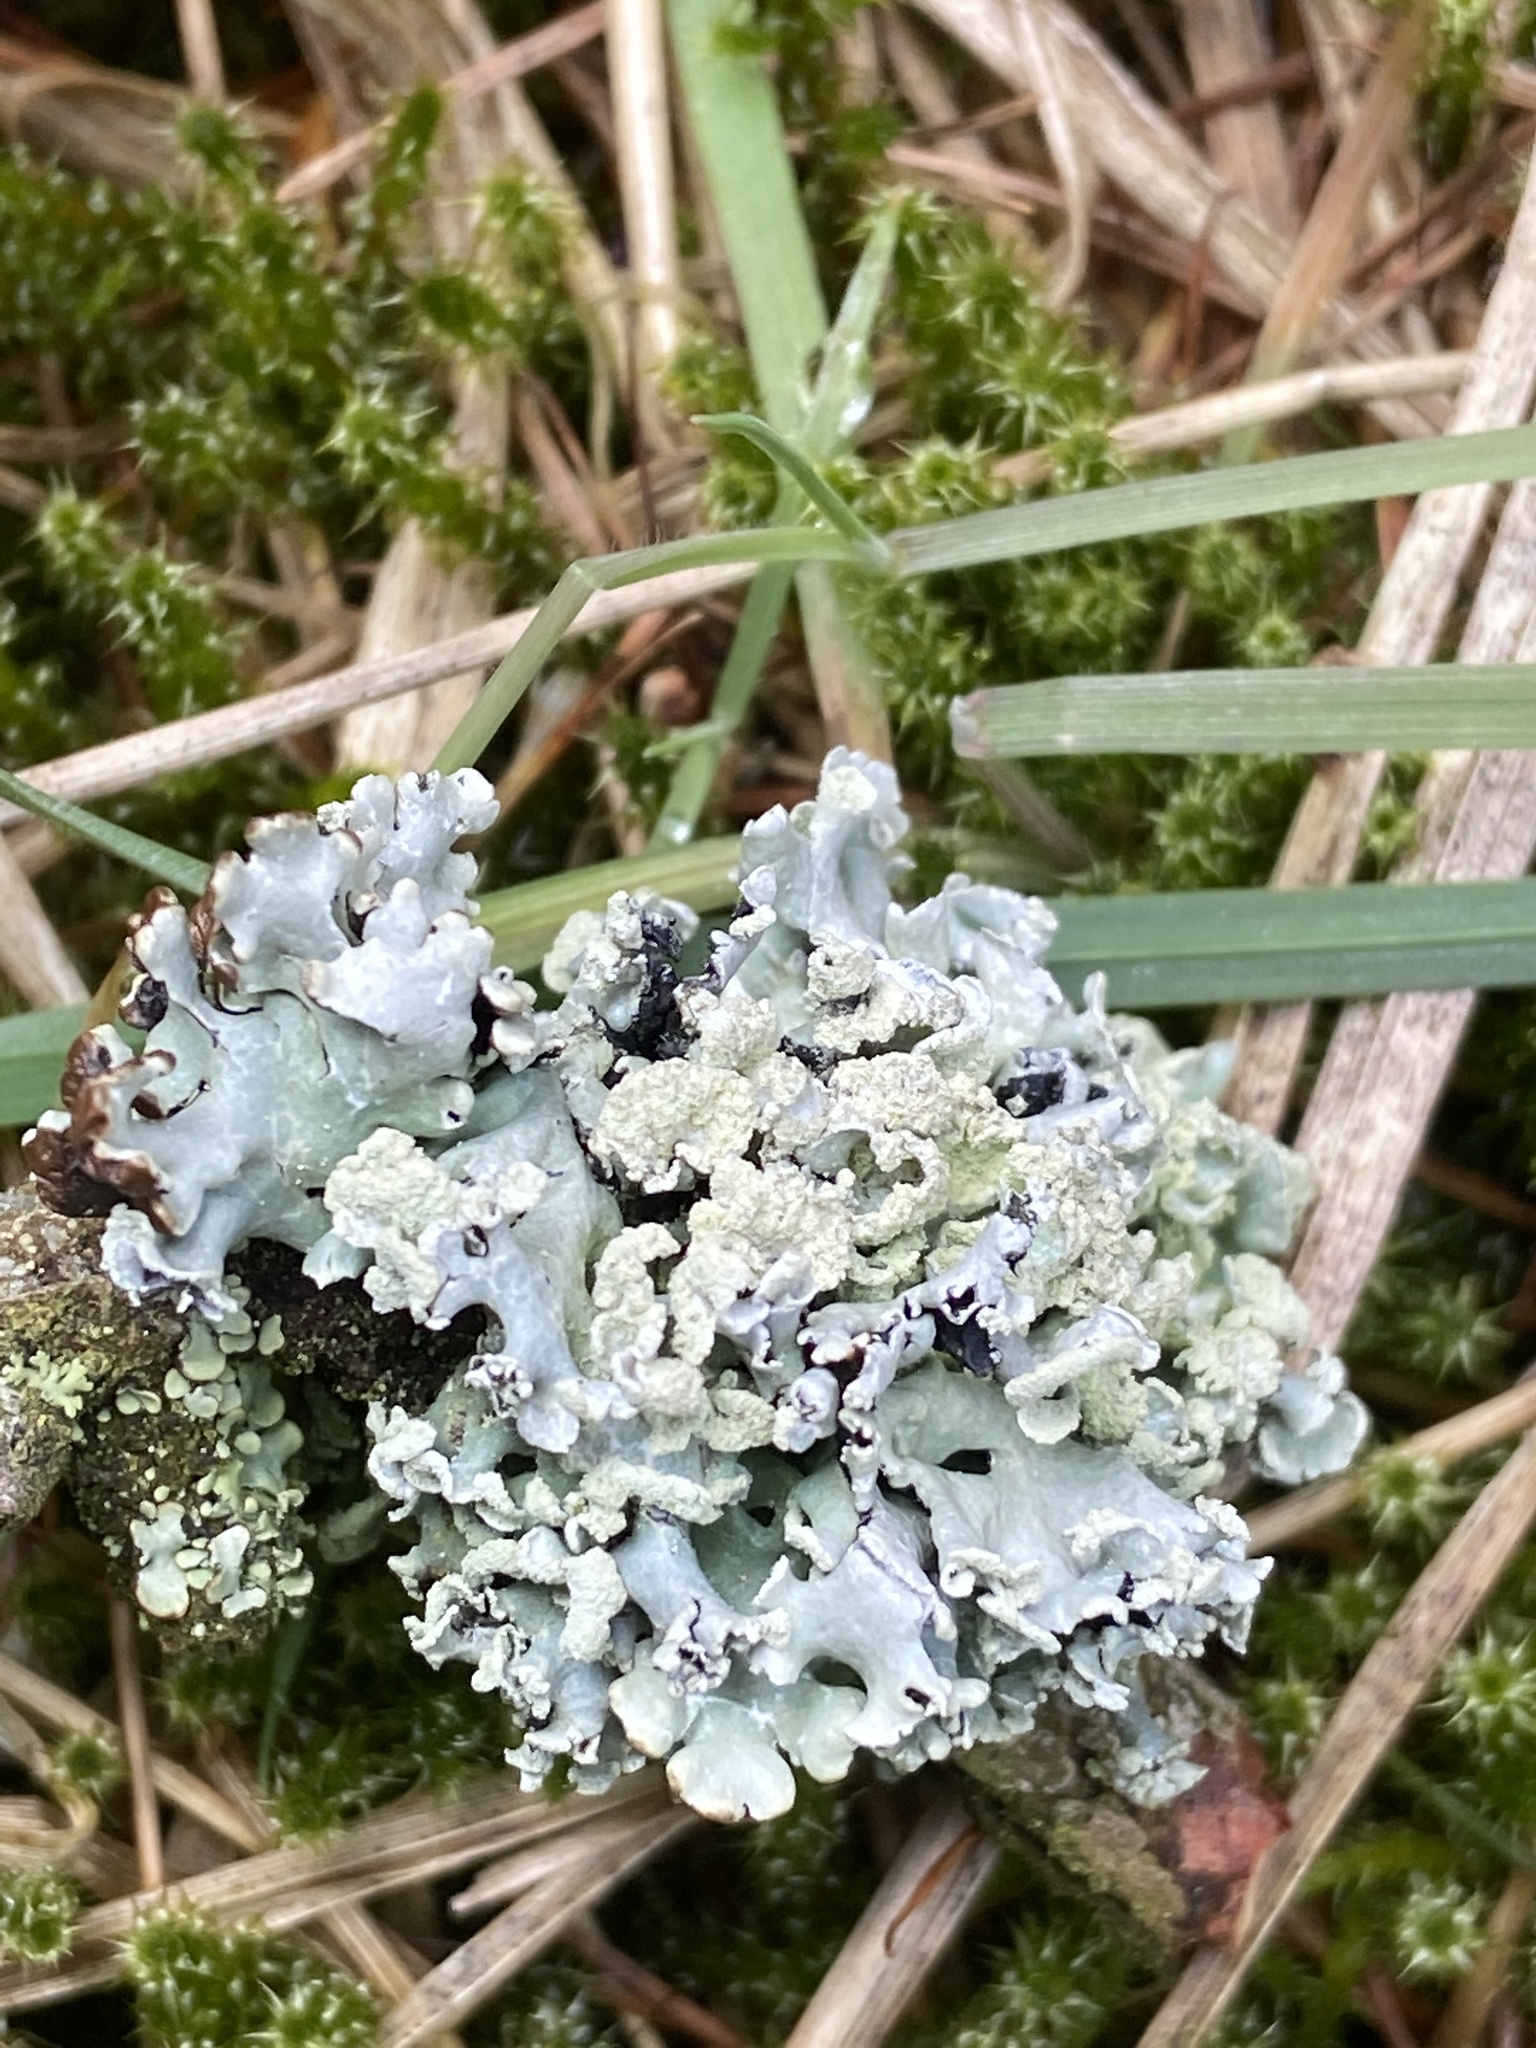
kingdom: Fungi
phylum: Ascomycota
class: Lecanoromycetes
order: Lecanorales
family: Parmeliaceae
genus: Hypogymnia
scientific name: Hypogymnia physodes
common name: Dark crottle
